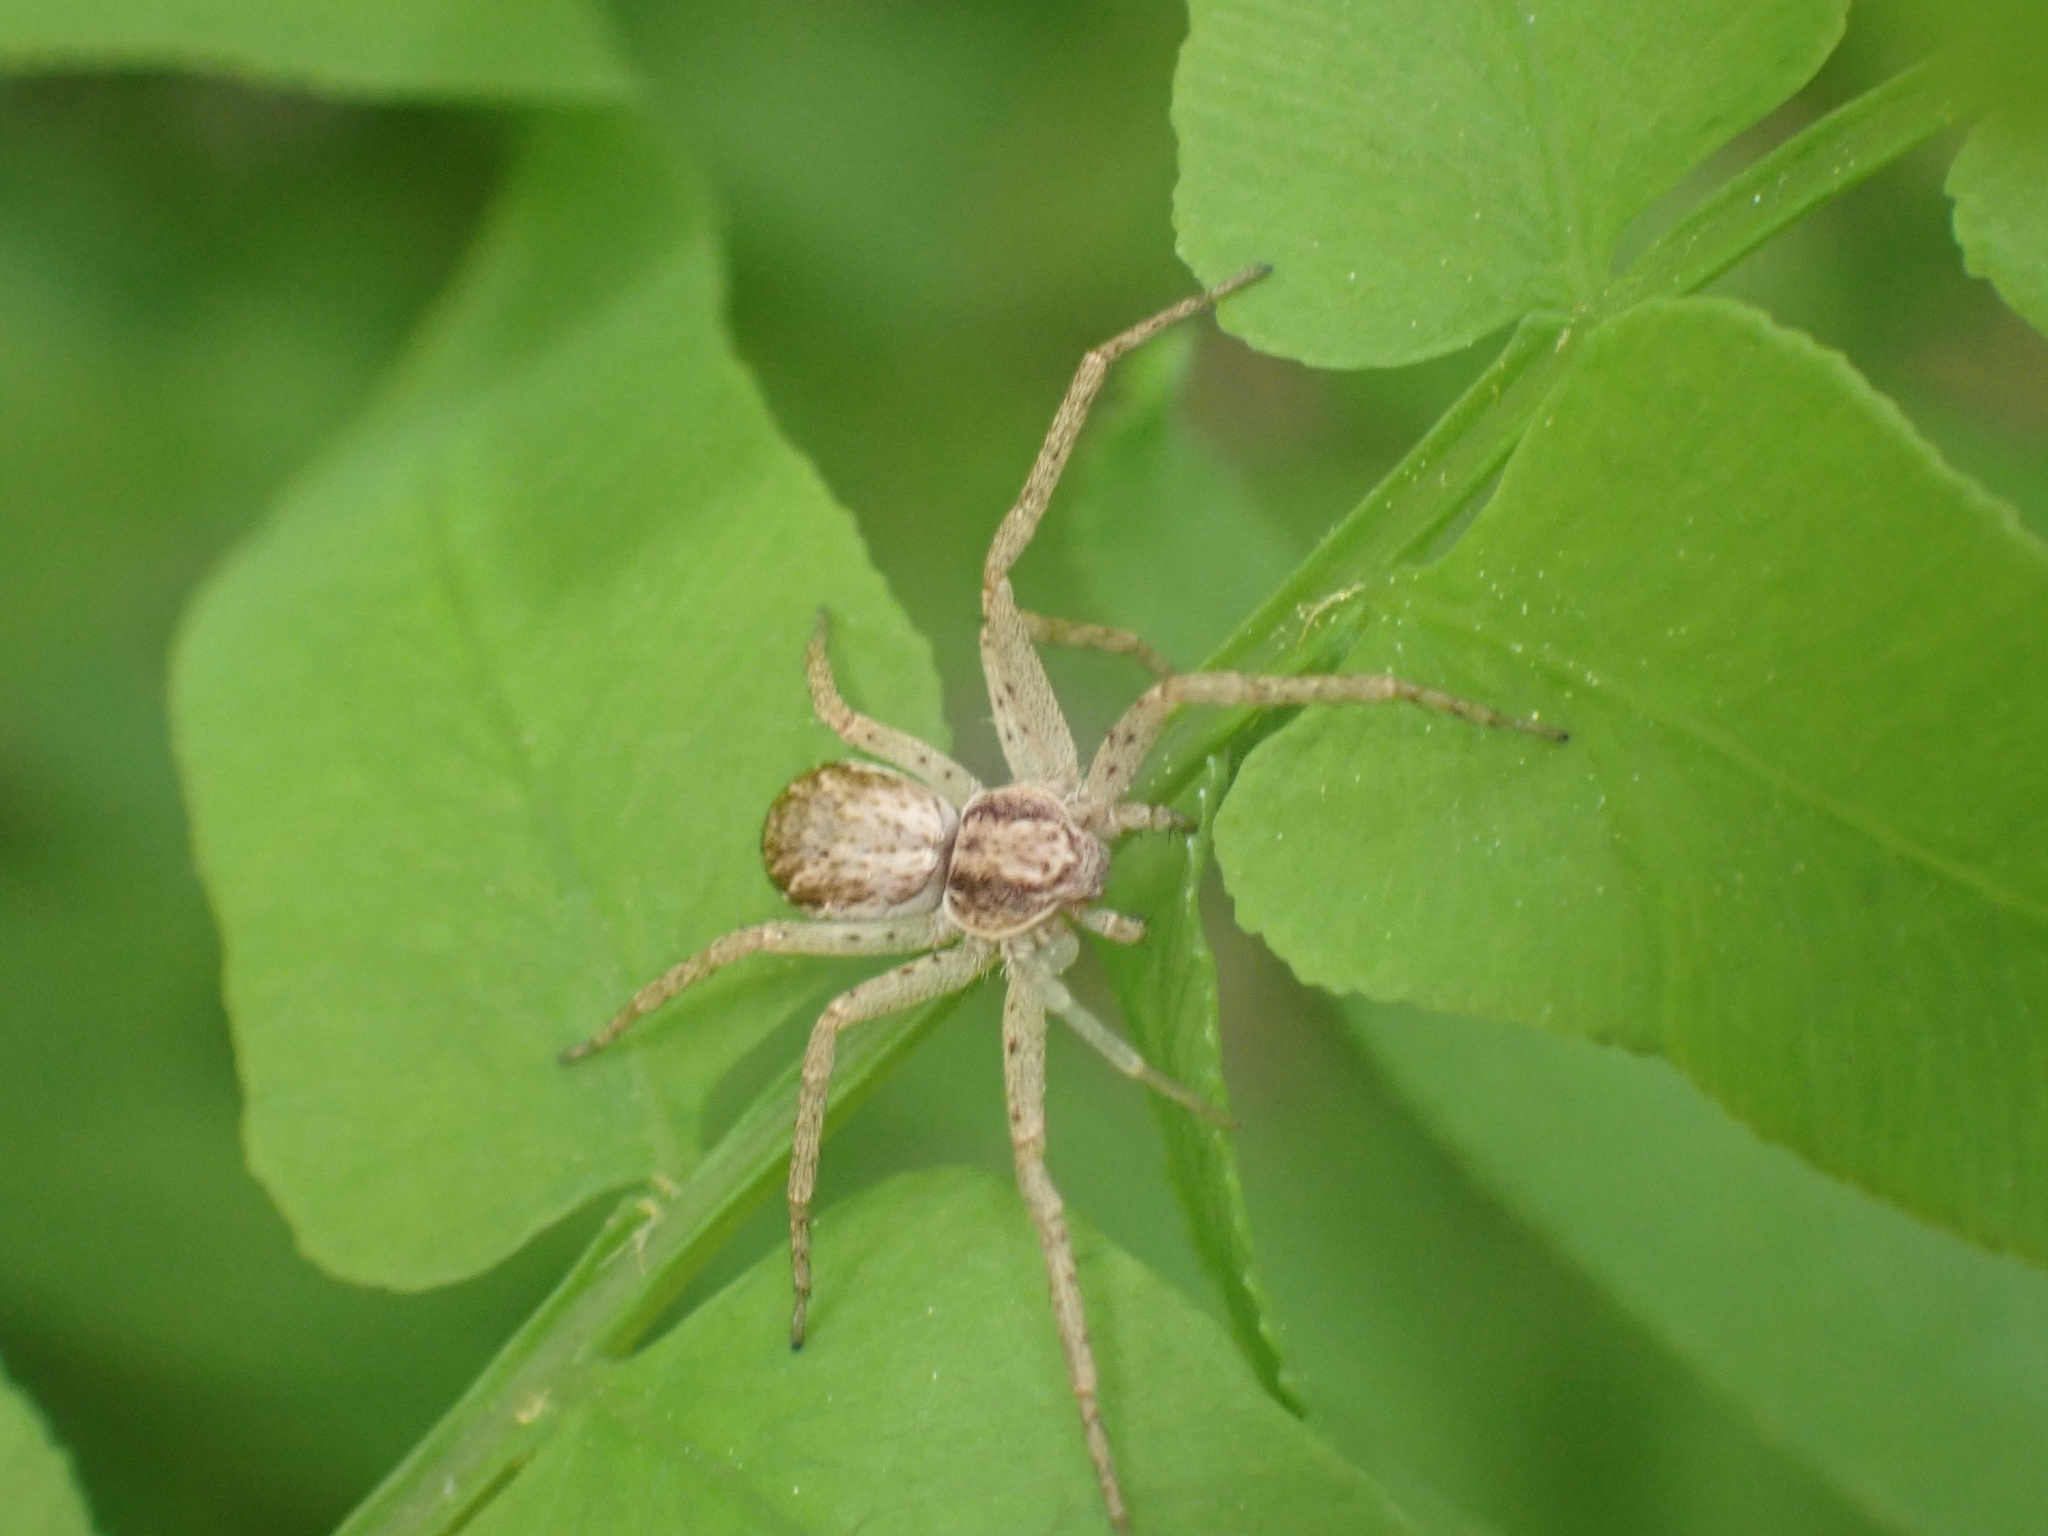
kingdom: Animalia
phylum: Arthropoda
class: Arachnida
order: Araneae
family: Philodromidae
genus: Philodromus
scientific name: Philodromus dispar
